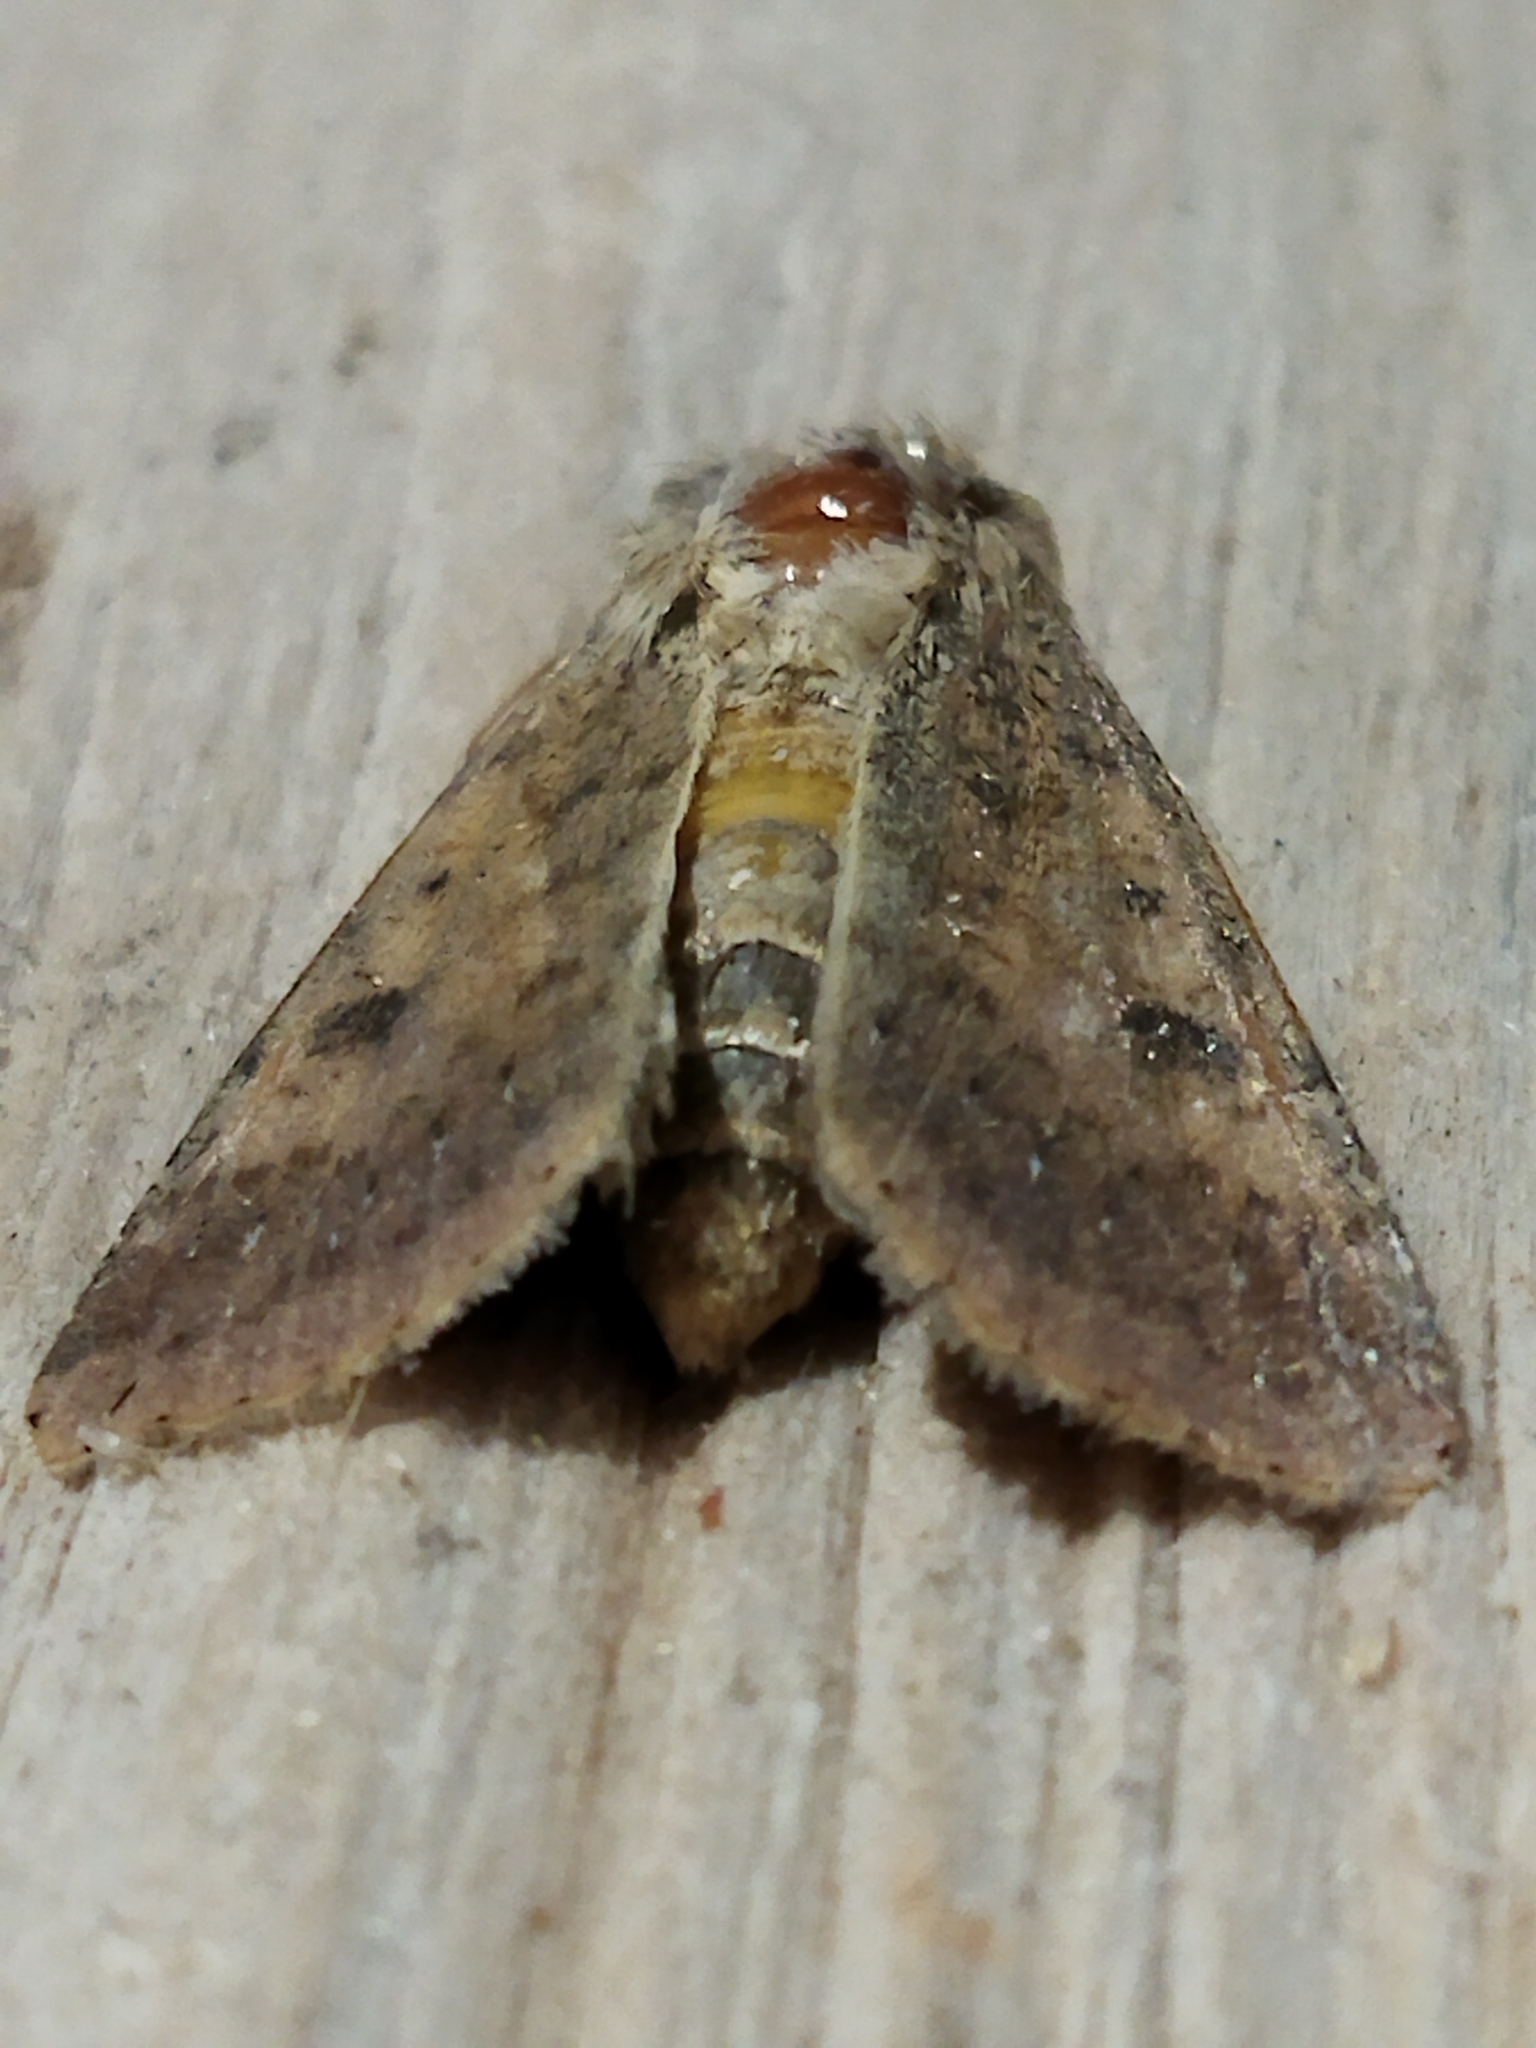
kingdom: Animalia
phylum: Arthropoda
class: Insecta
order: Lepidoptera
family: Noctuidae
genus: Helicoverpa
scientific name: Helicoverpa armigera
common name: Cotton bollworm
